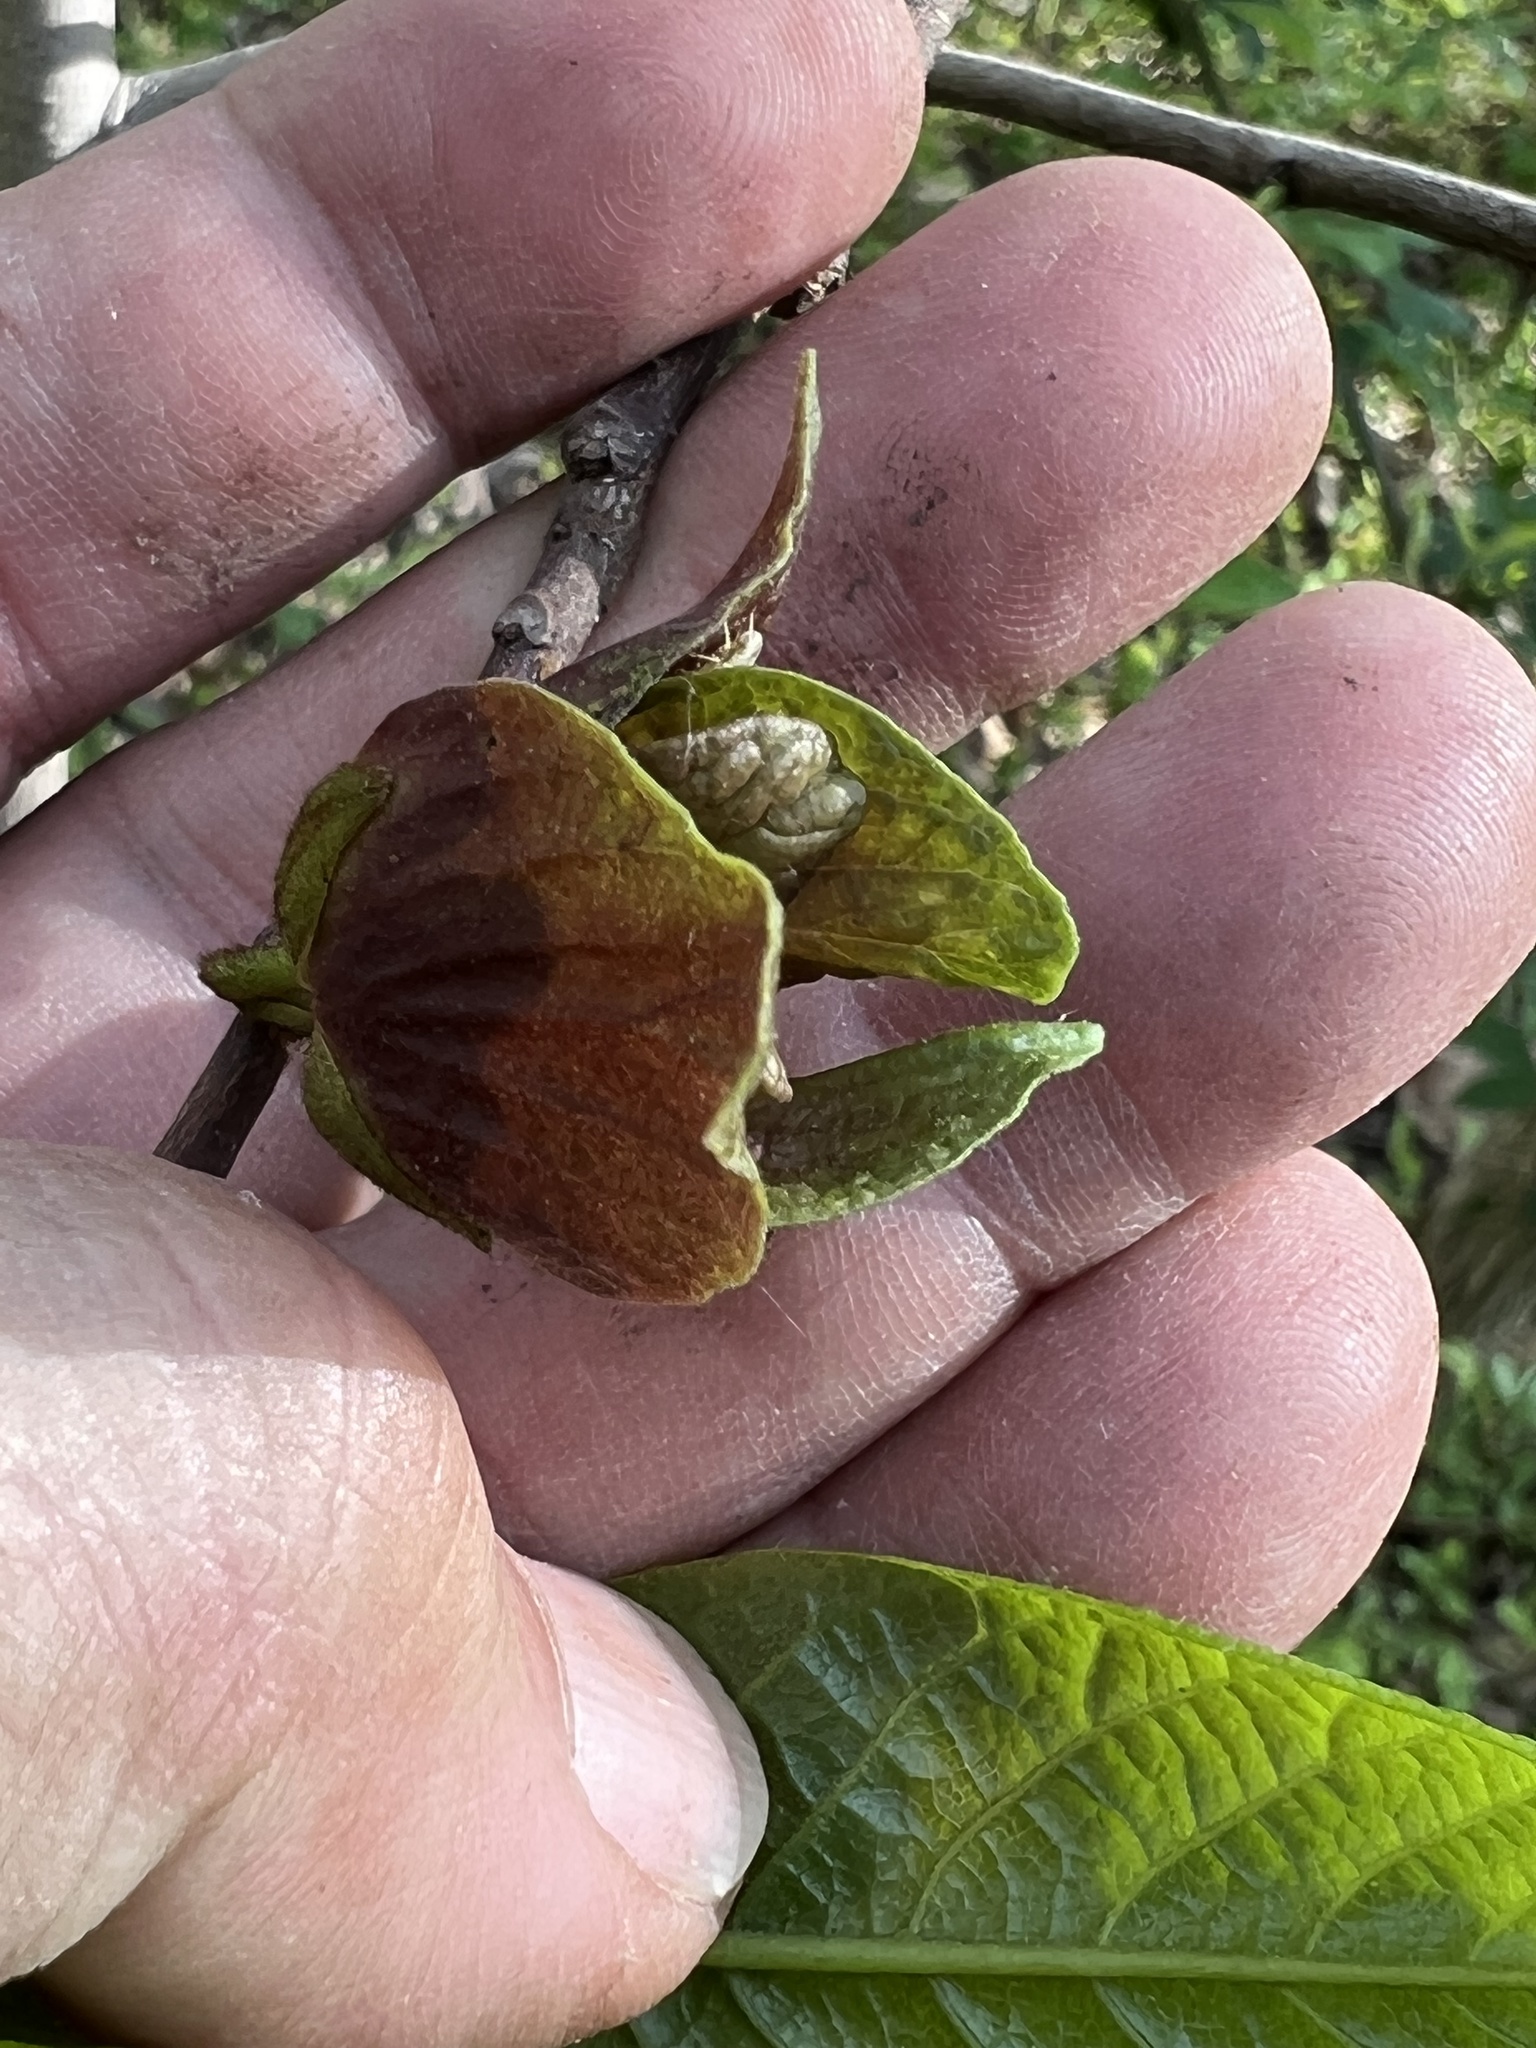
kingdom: Plantae
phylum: Tracheophyta
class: Magnoliopsida
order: Magnoliales
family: Annonaceae
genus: Asimina
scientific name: Asimina triloba
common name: Dog-banana
